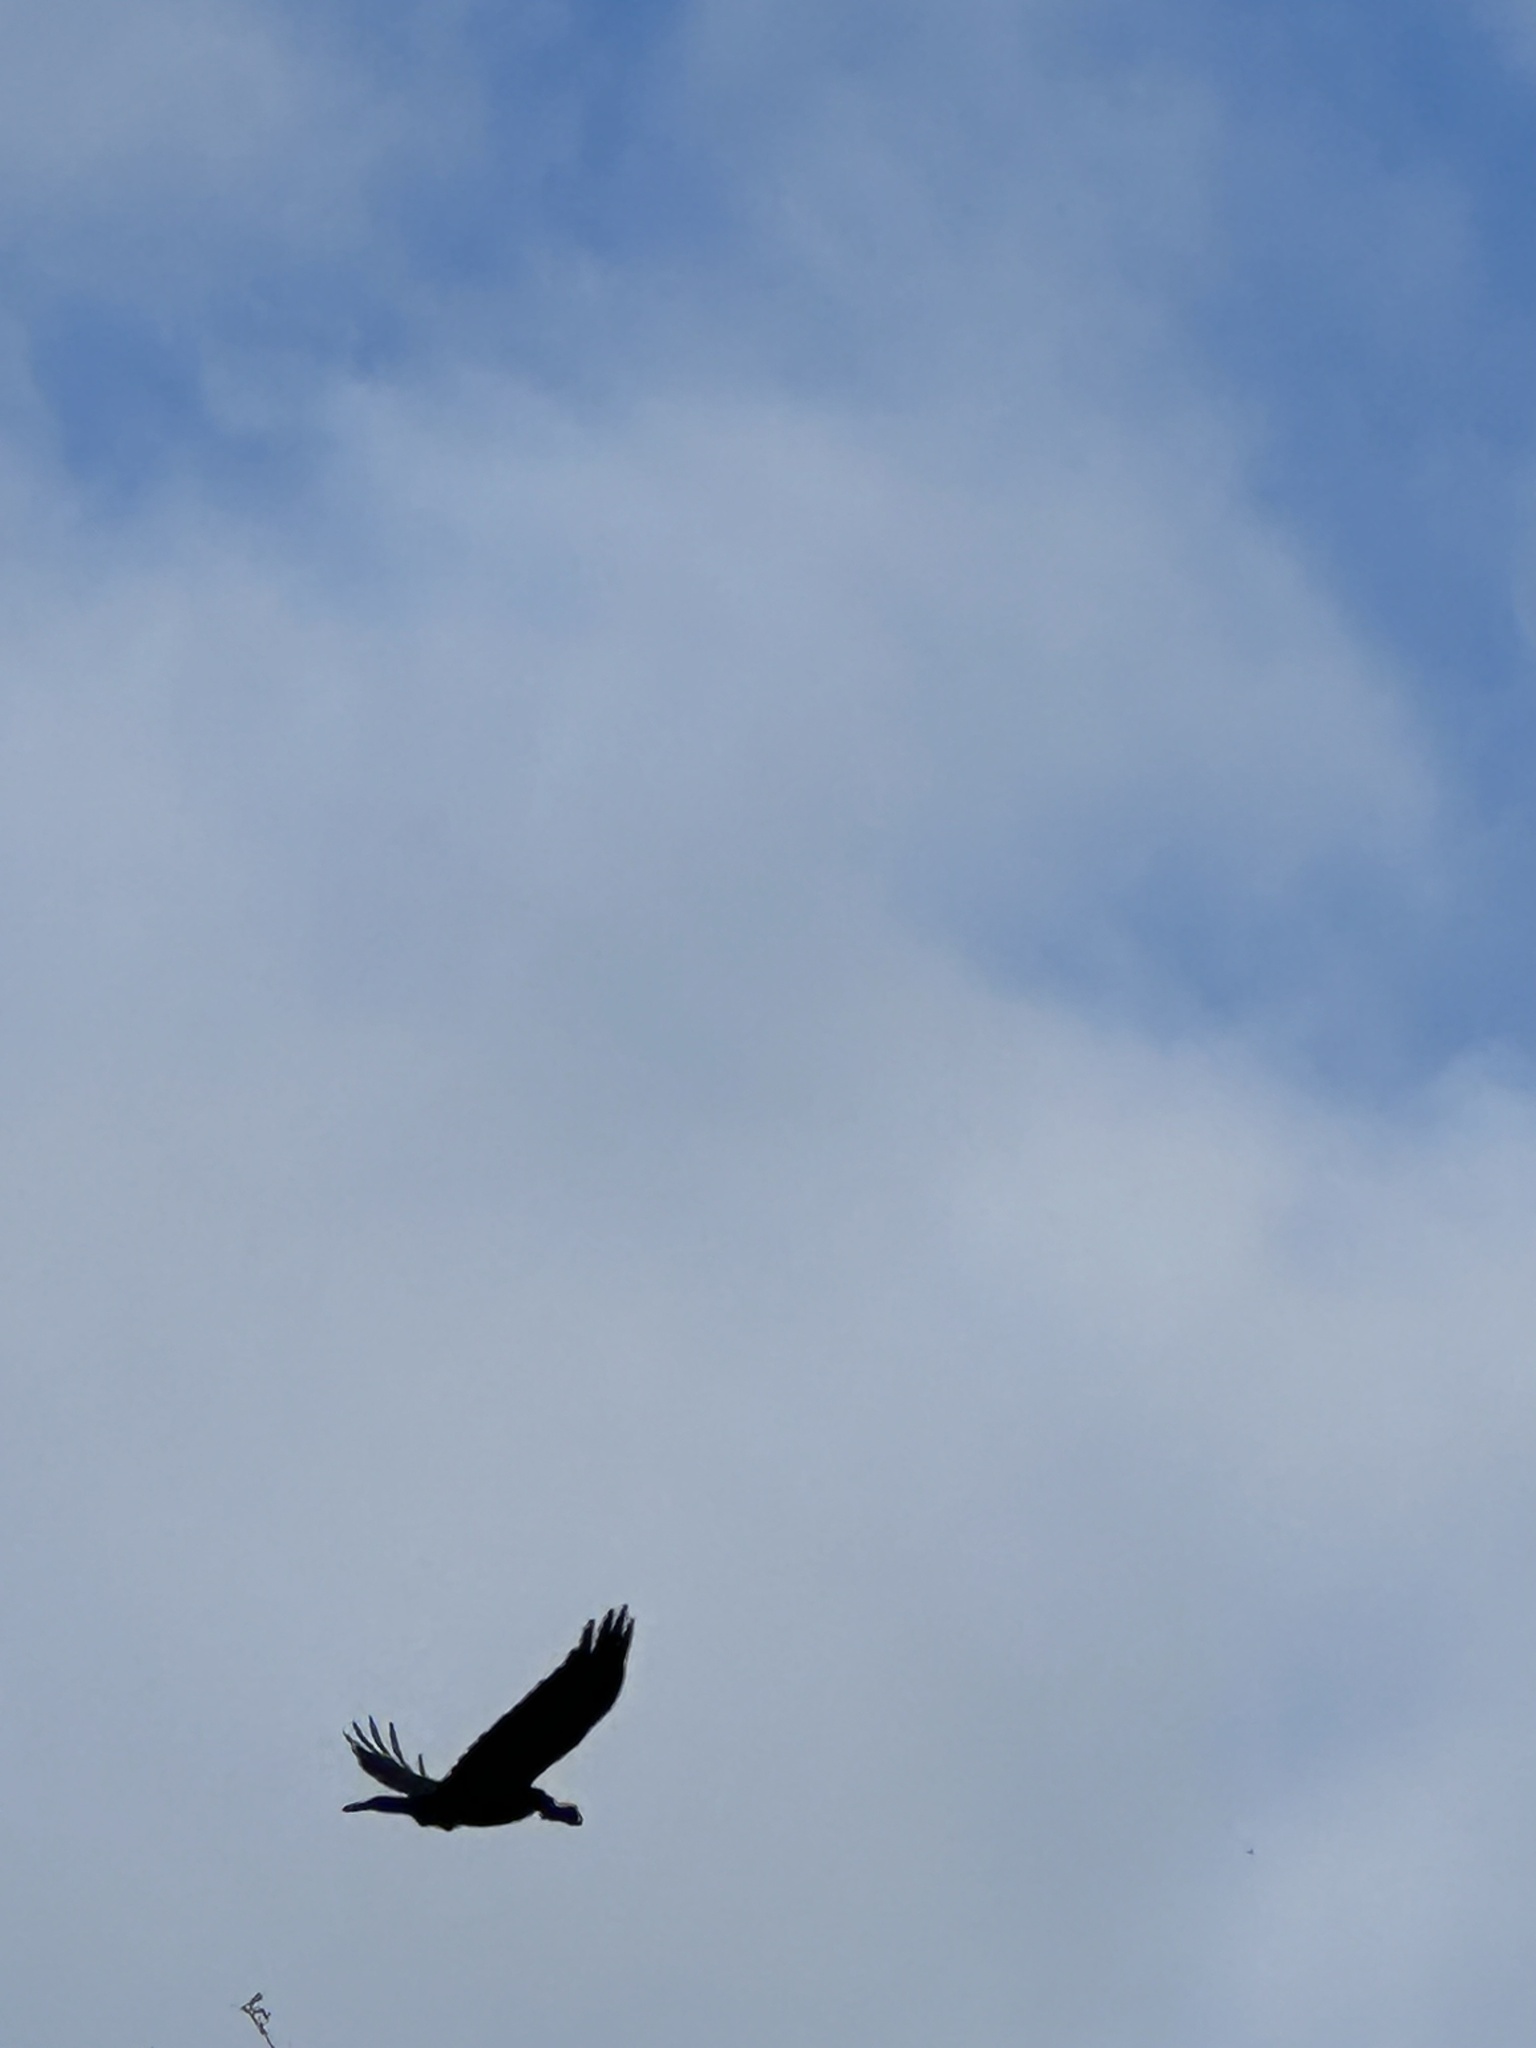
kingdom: Animalia
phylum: Chordata
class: Aves
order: Passeriformes
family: Corvidae
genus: Corvus
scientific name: Corvus corax
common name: Common raven
